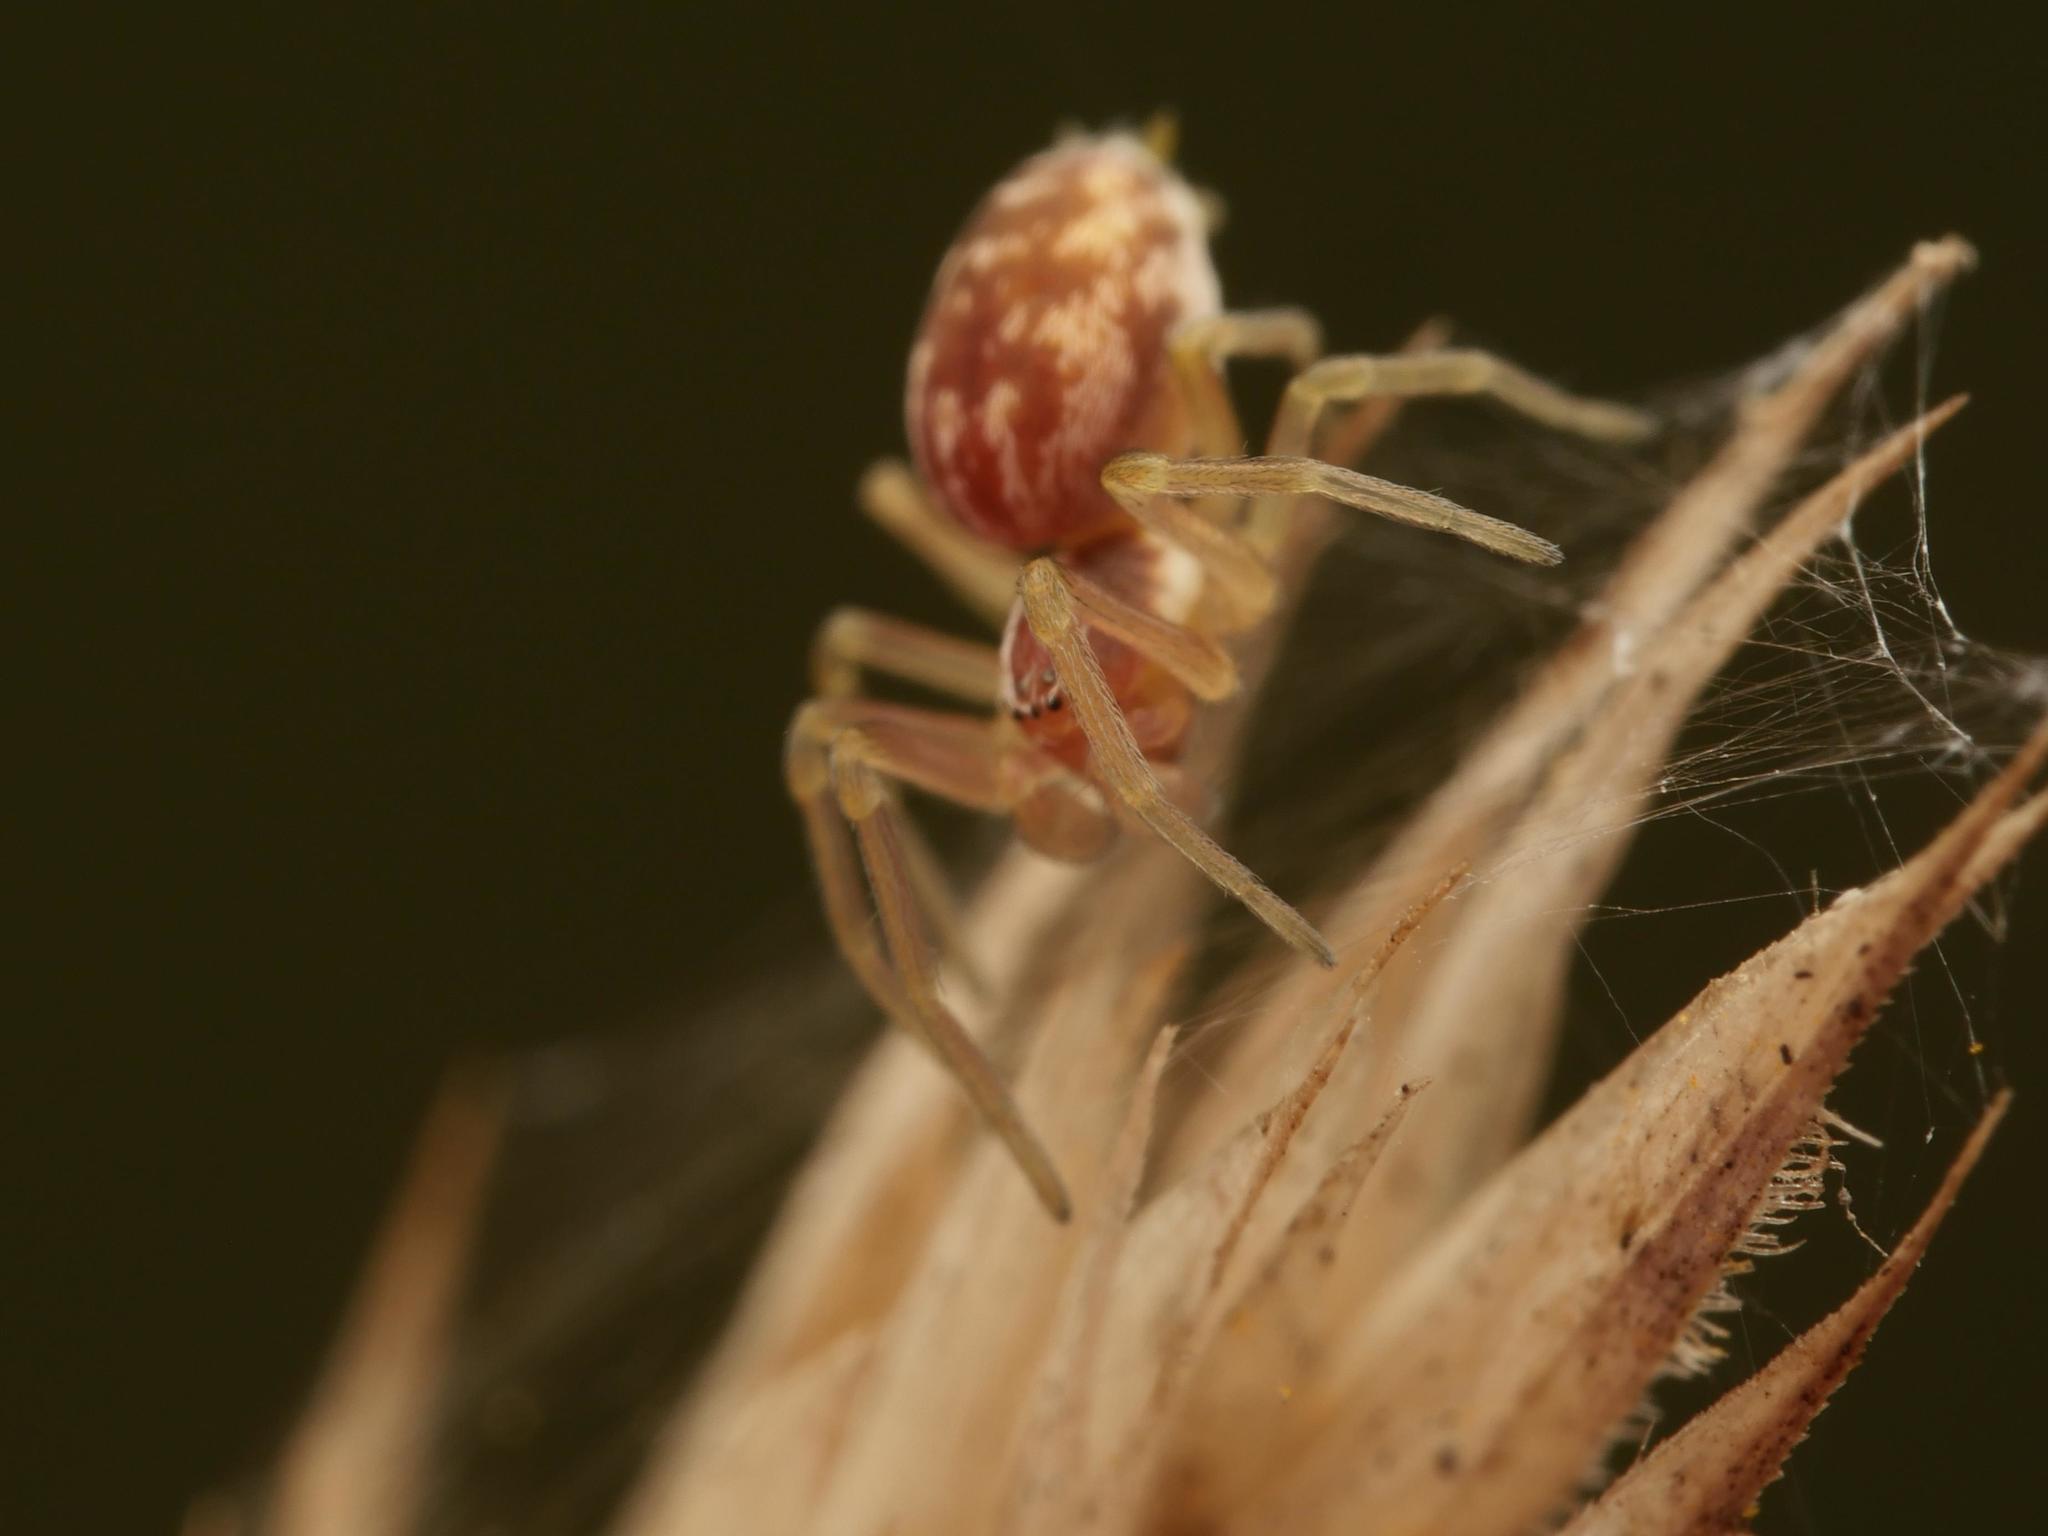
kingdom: Animalia
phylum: Arthropoda
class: Arachnida
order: Araneae
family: Dictynidae
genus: Nigma
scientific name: Nigma flavescens
